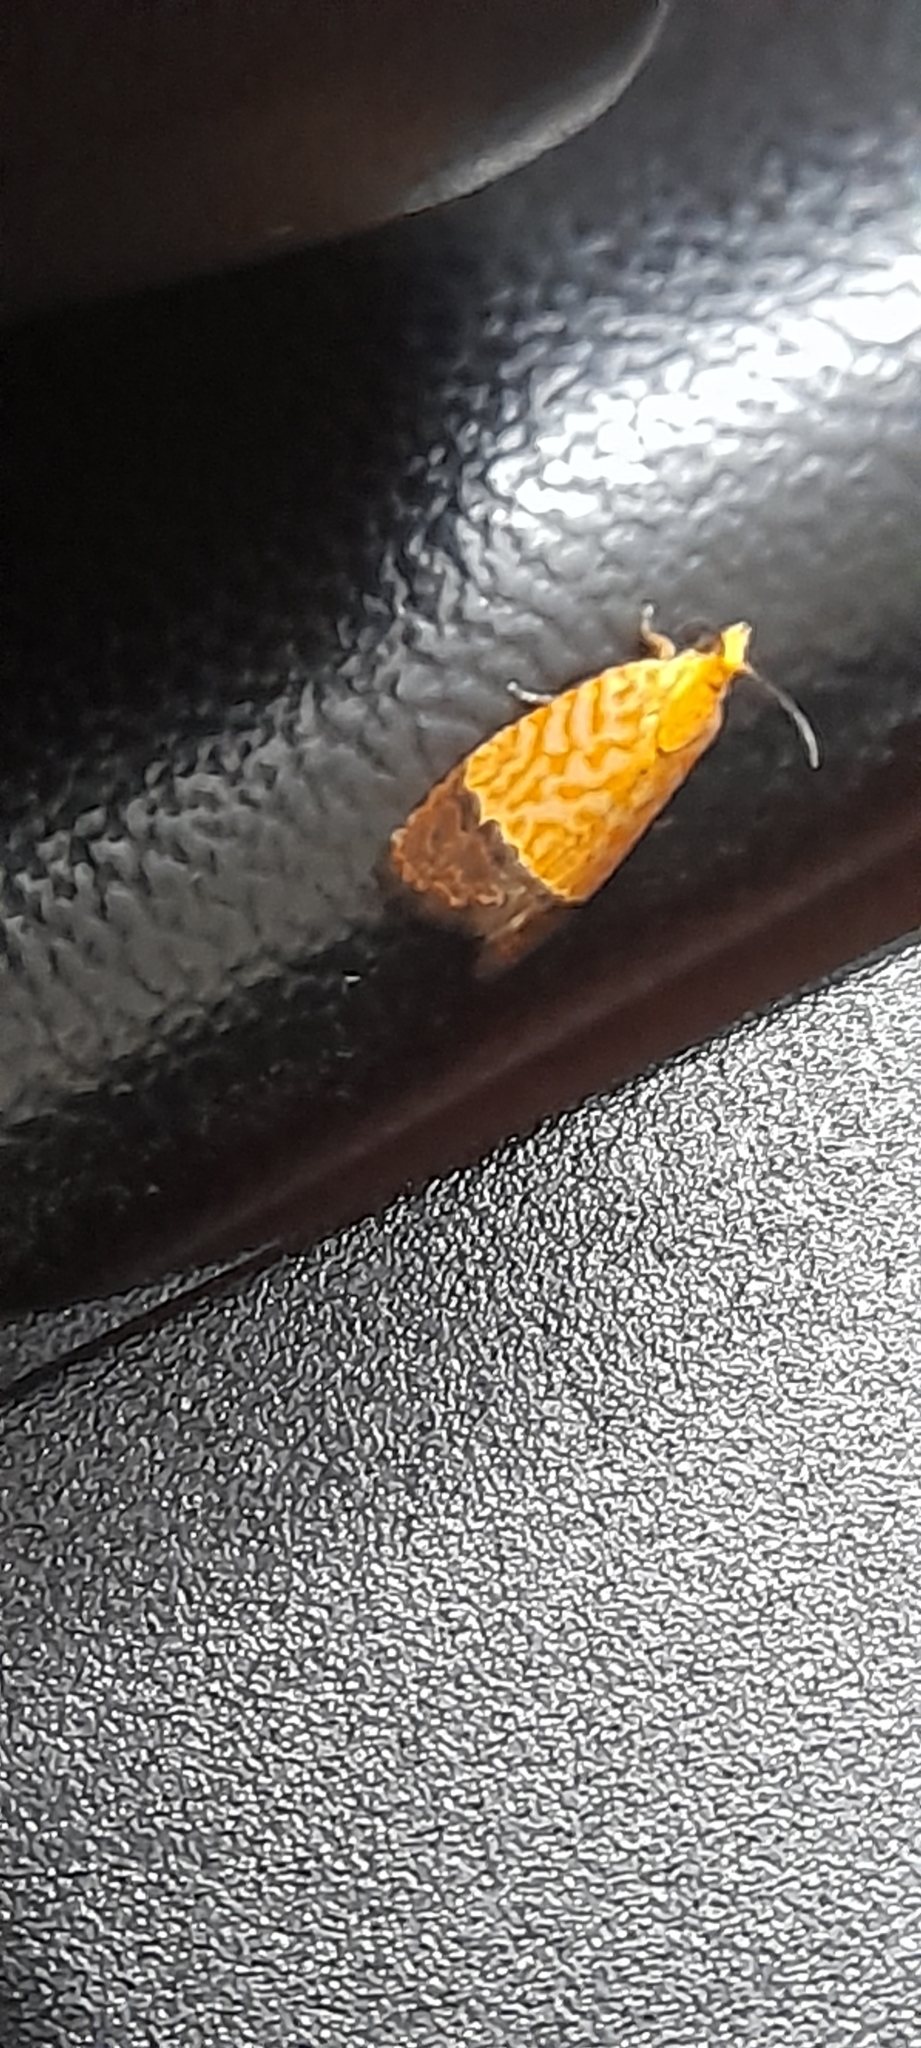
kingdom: Animalia
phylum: Arthropoda
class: Insecta
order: Lepidoptera
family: Tortricidae
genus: Loboschiza
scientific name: Loboschiza koenigiana
